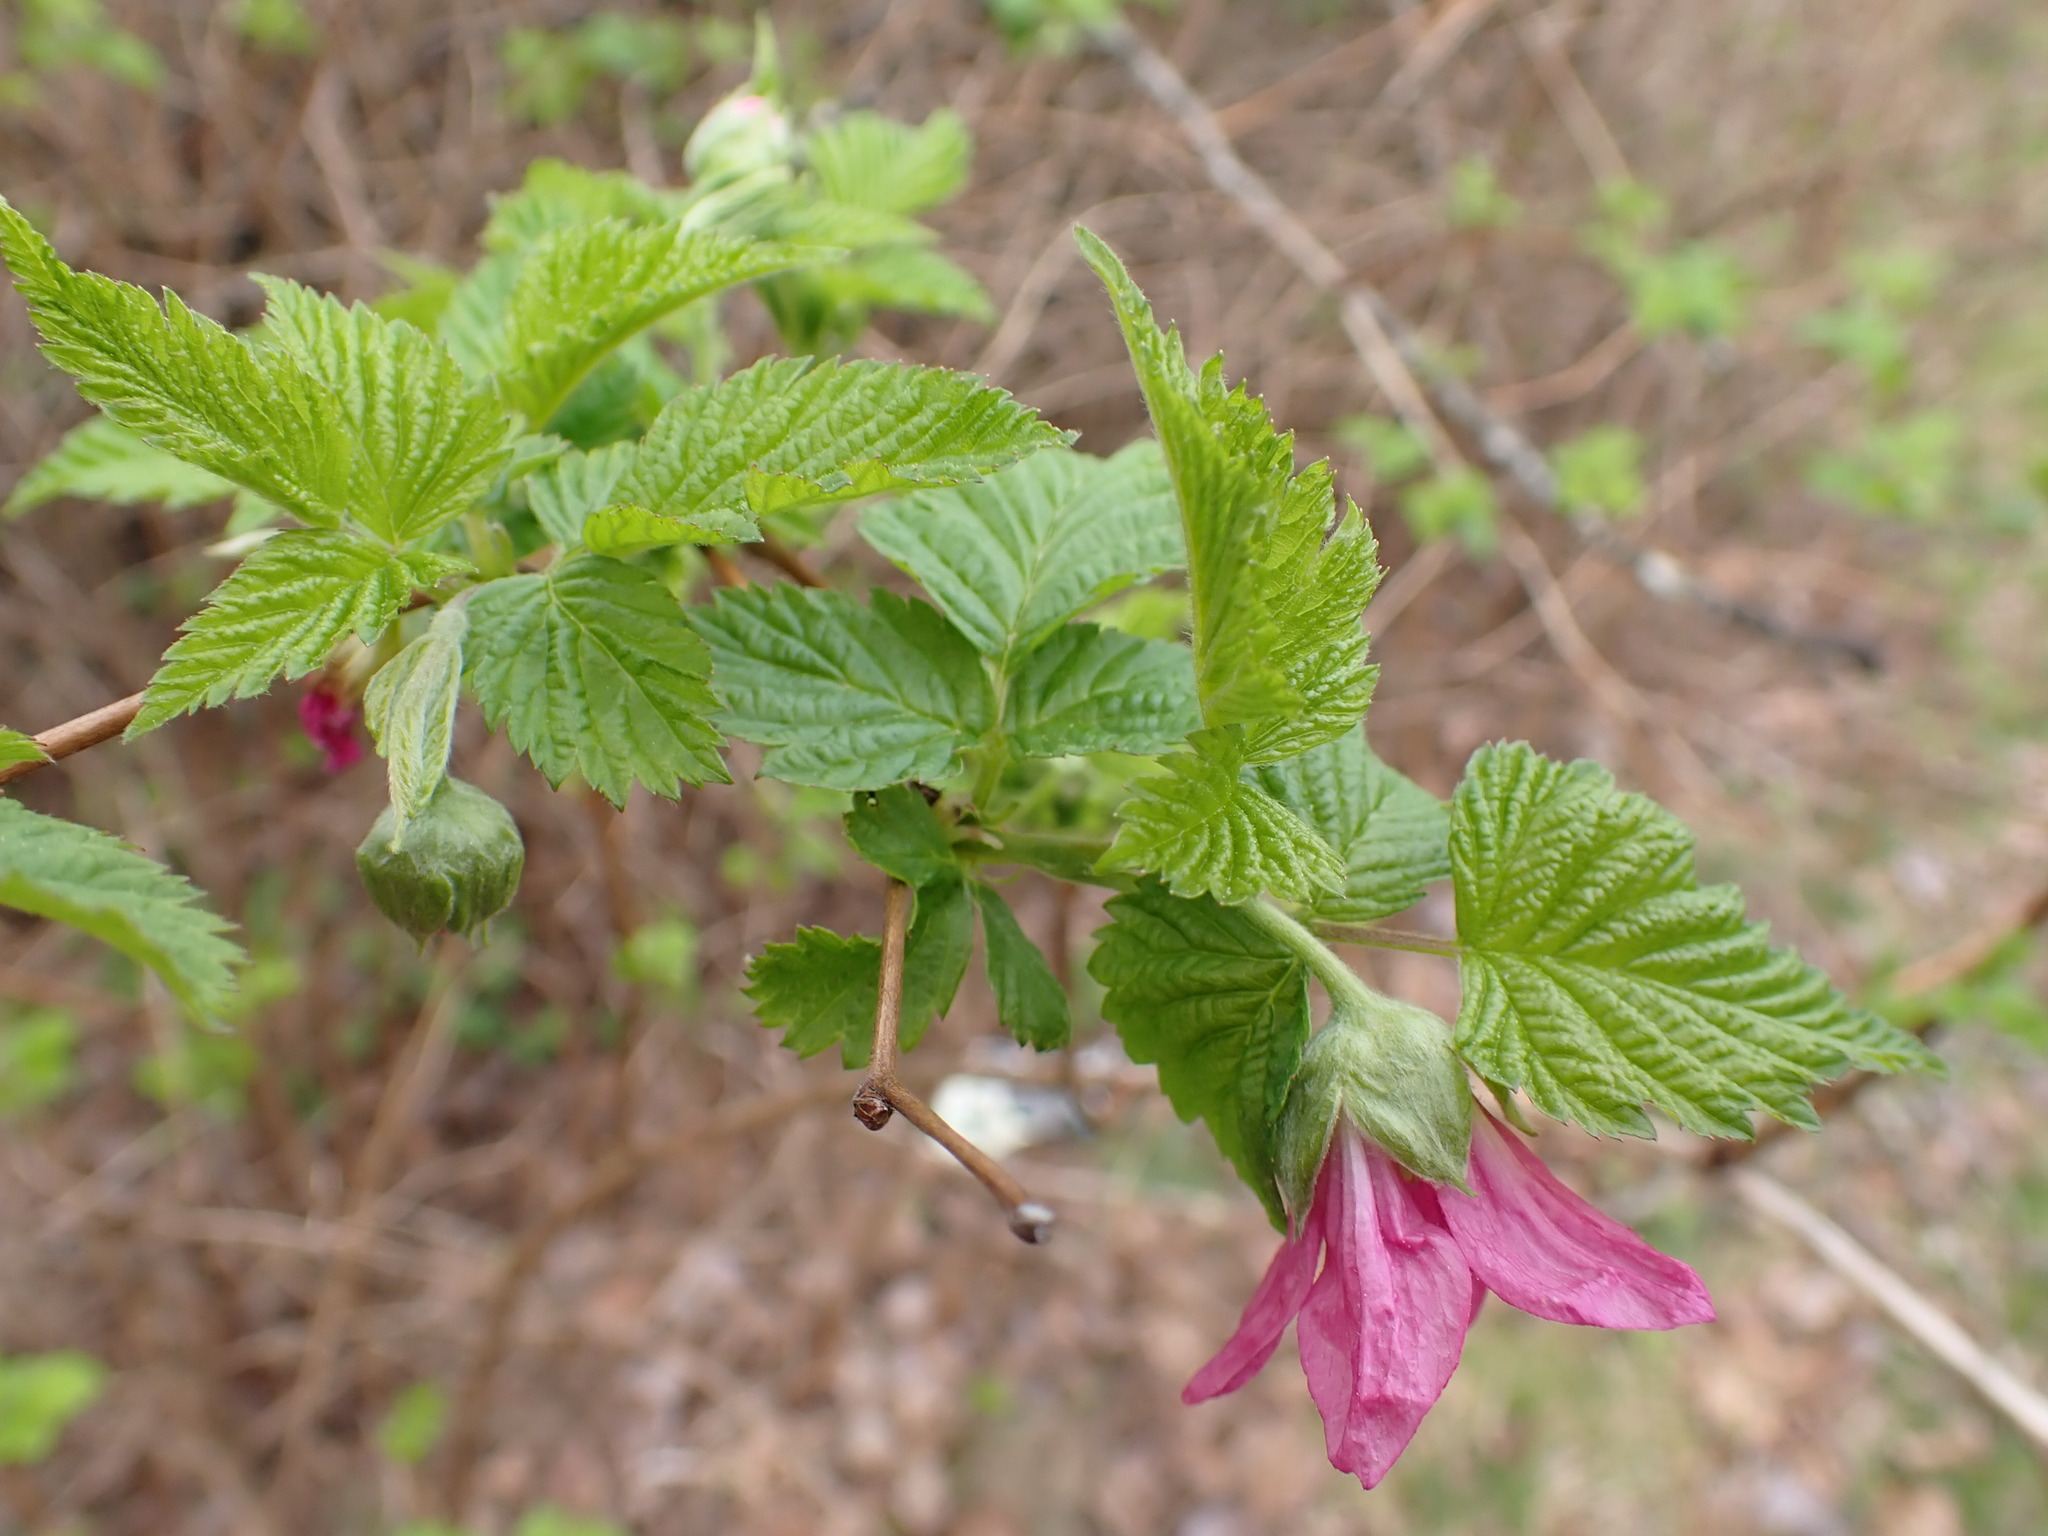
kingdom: Plantae
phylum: Tracheophyta
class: Magnoliopsida
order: Rosales
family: Rosaceae
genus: Rubus
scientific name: Rubus spectabilis
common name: Salmonberry
